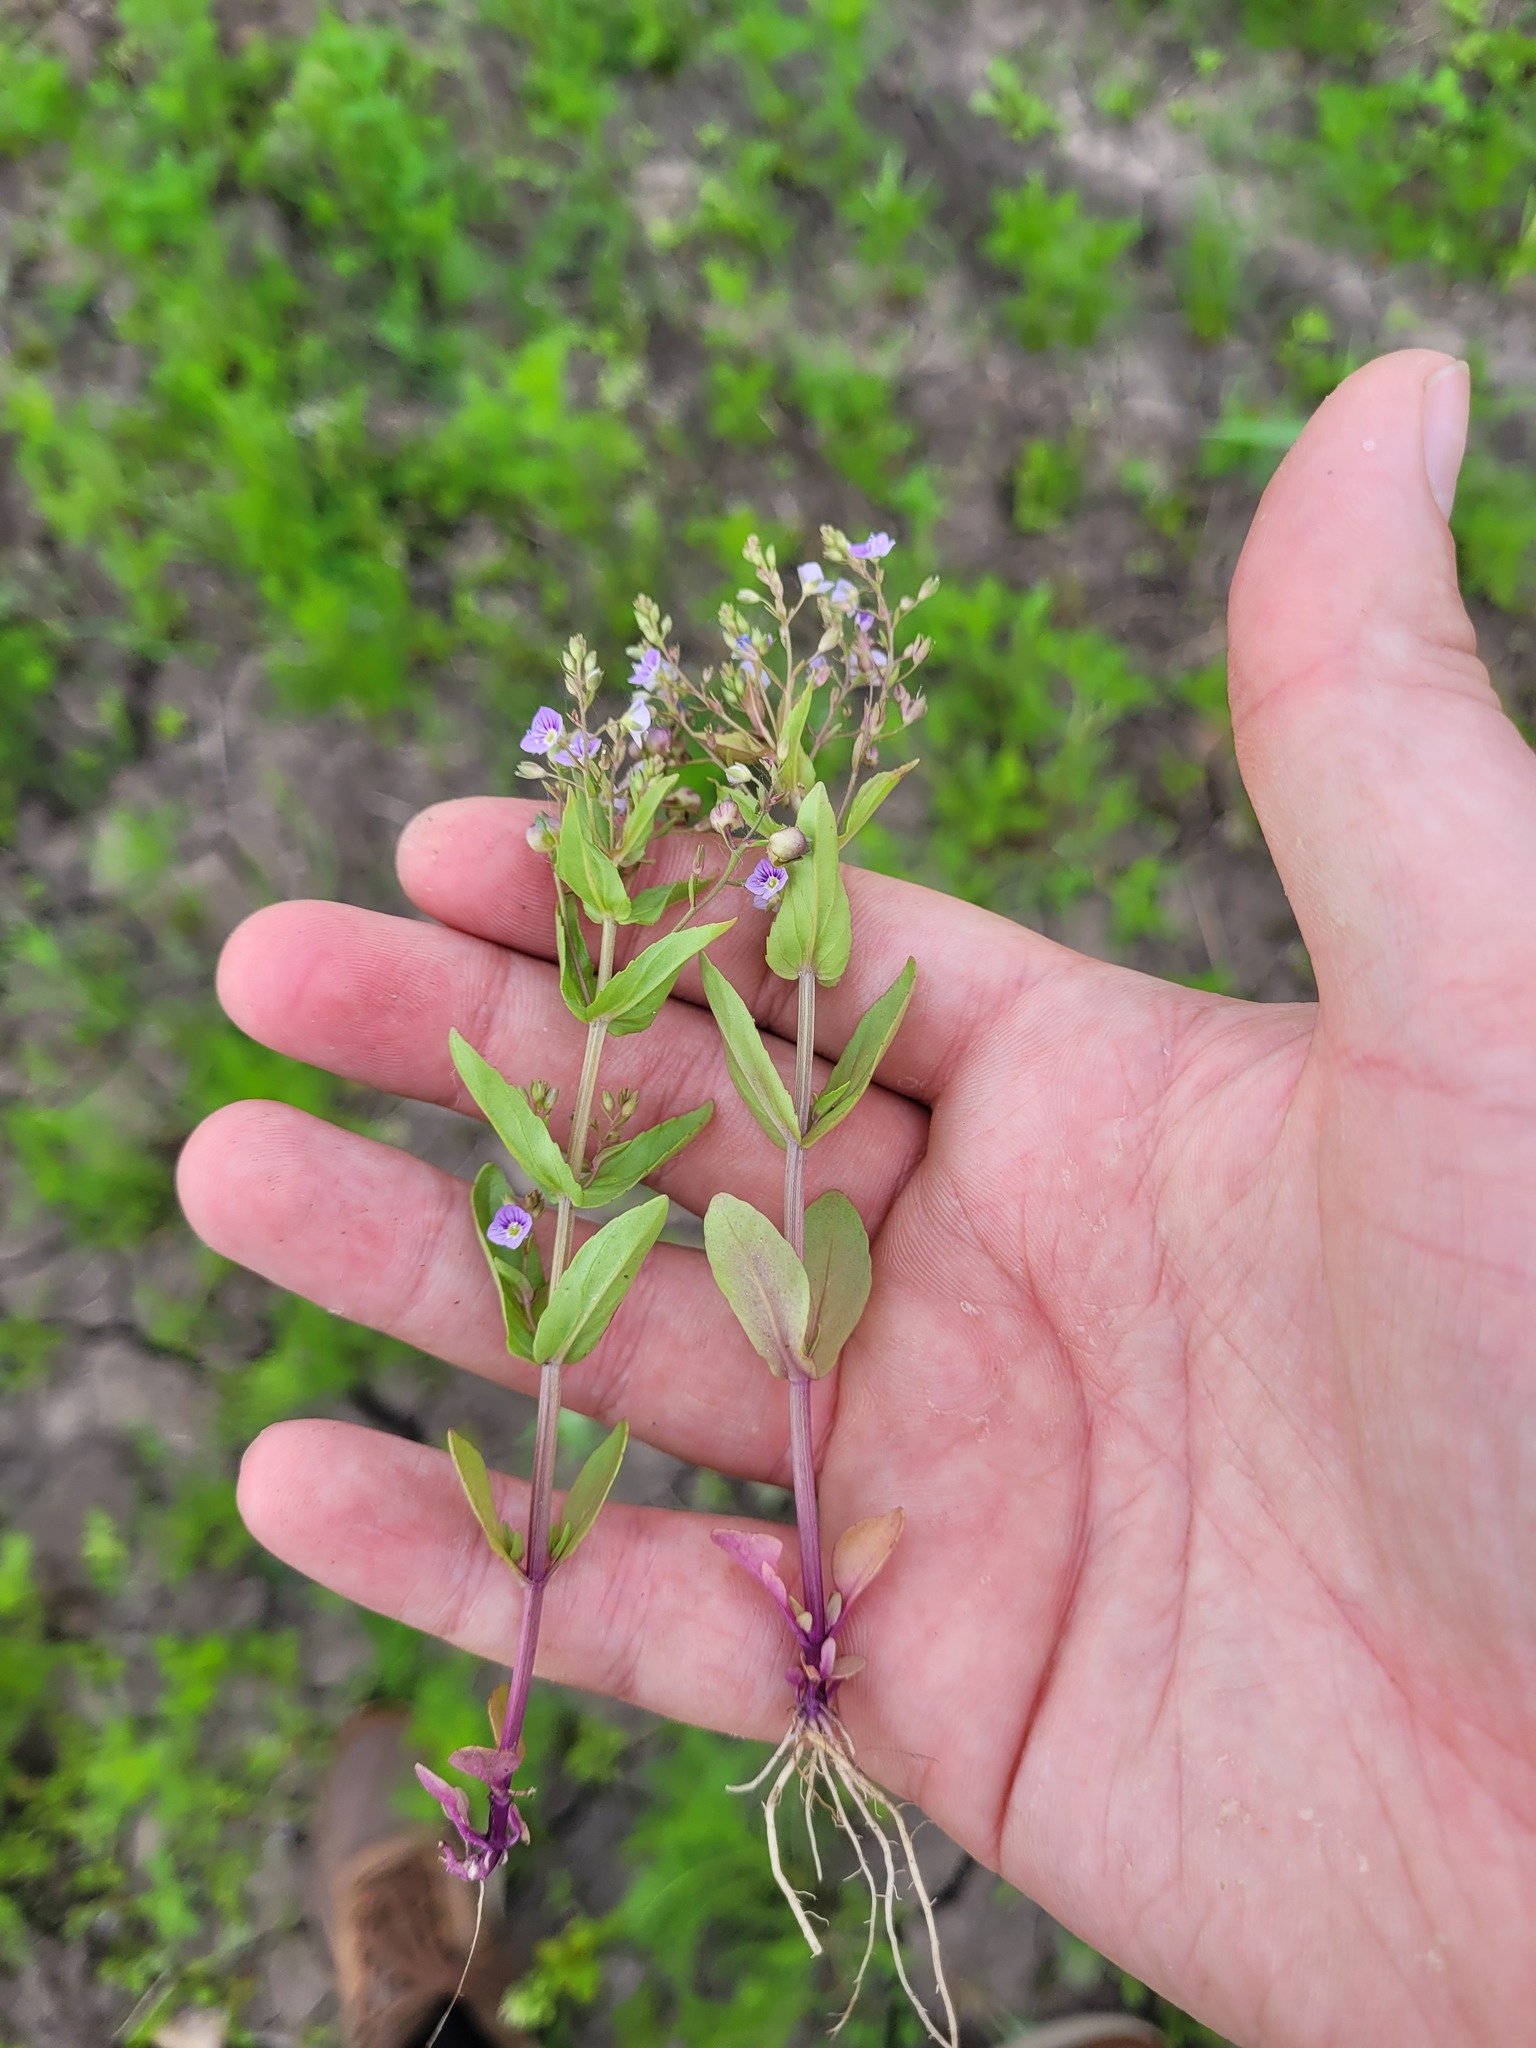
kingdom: Plantae
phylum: Tracheophyta
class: Magnoliopsida
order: Lamiales
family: Plantaginaceae
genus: Veronica
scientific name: Veronica anagallis-aquatica
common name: Water speedwell
